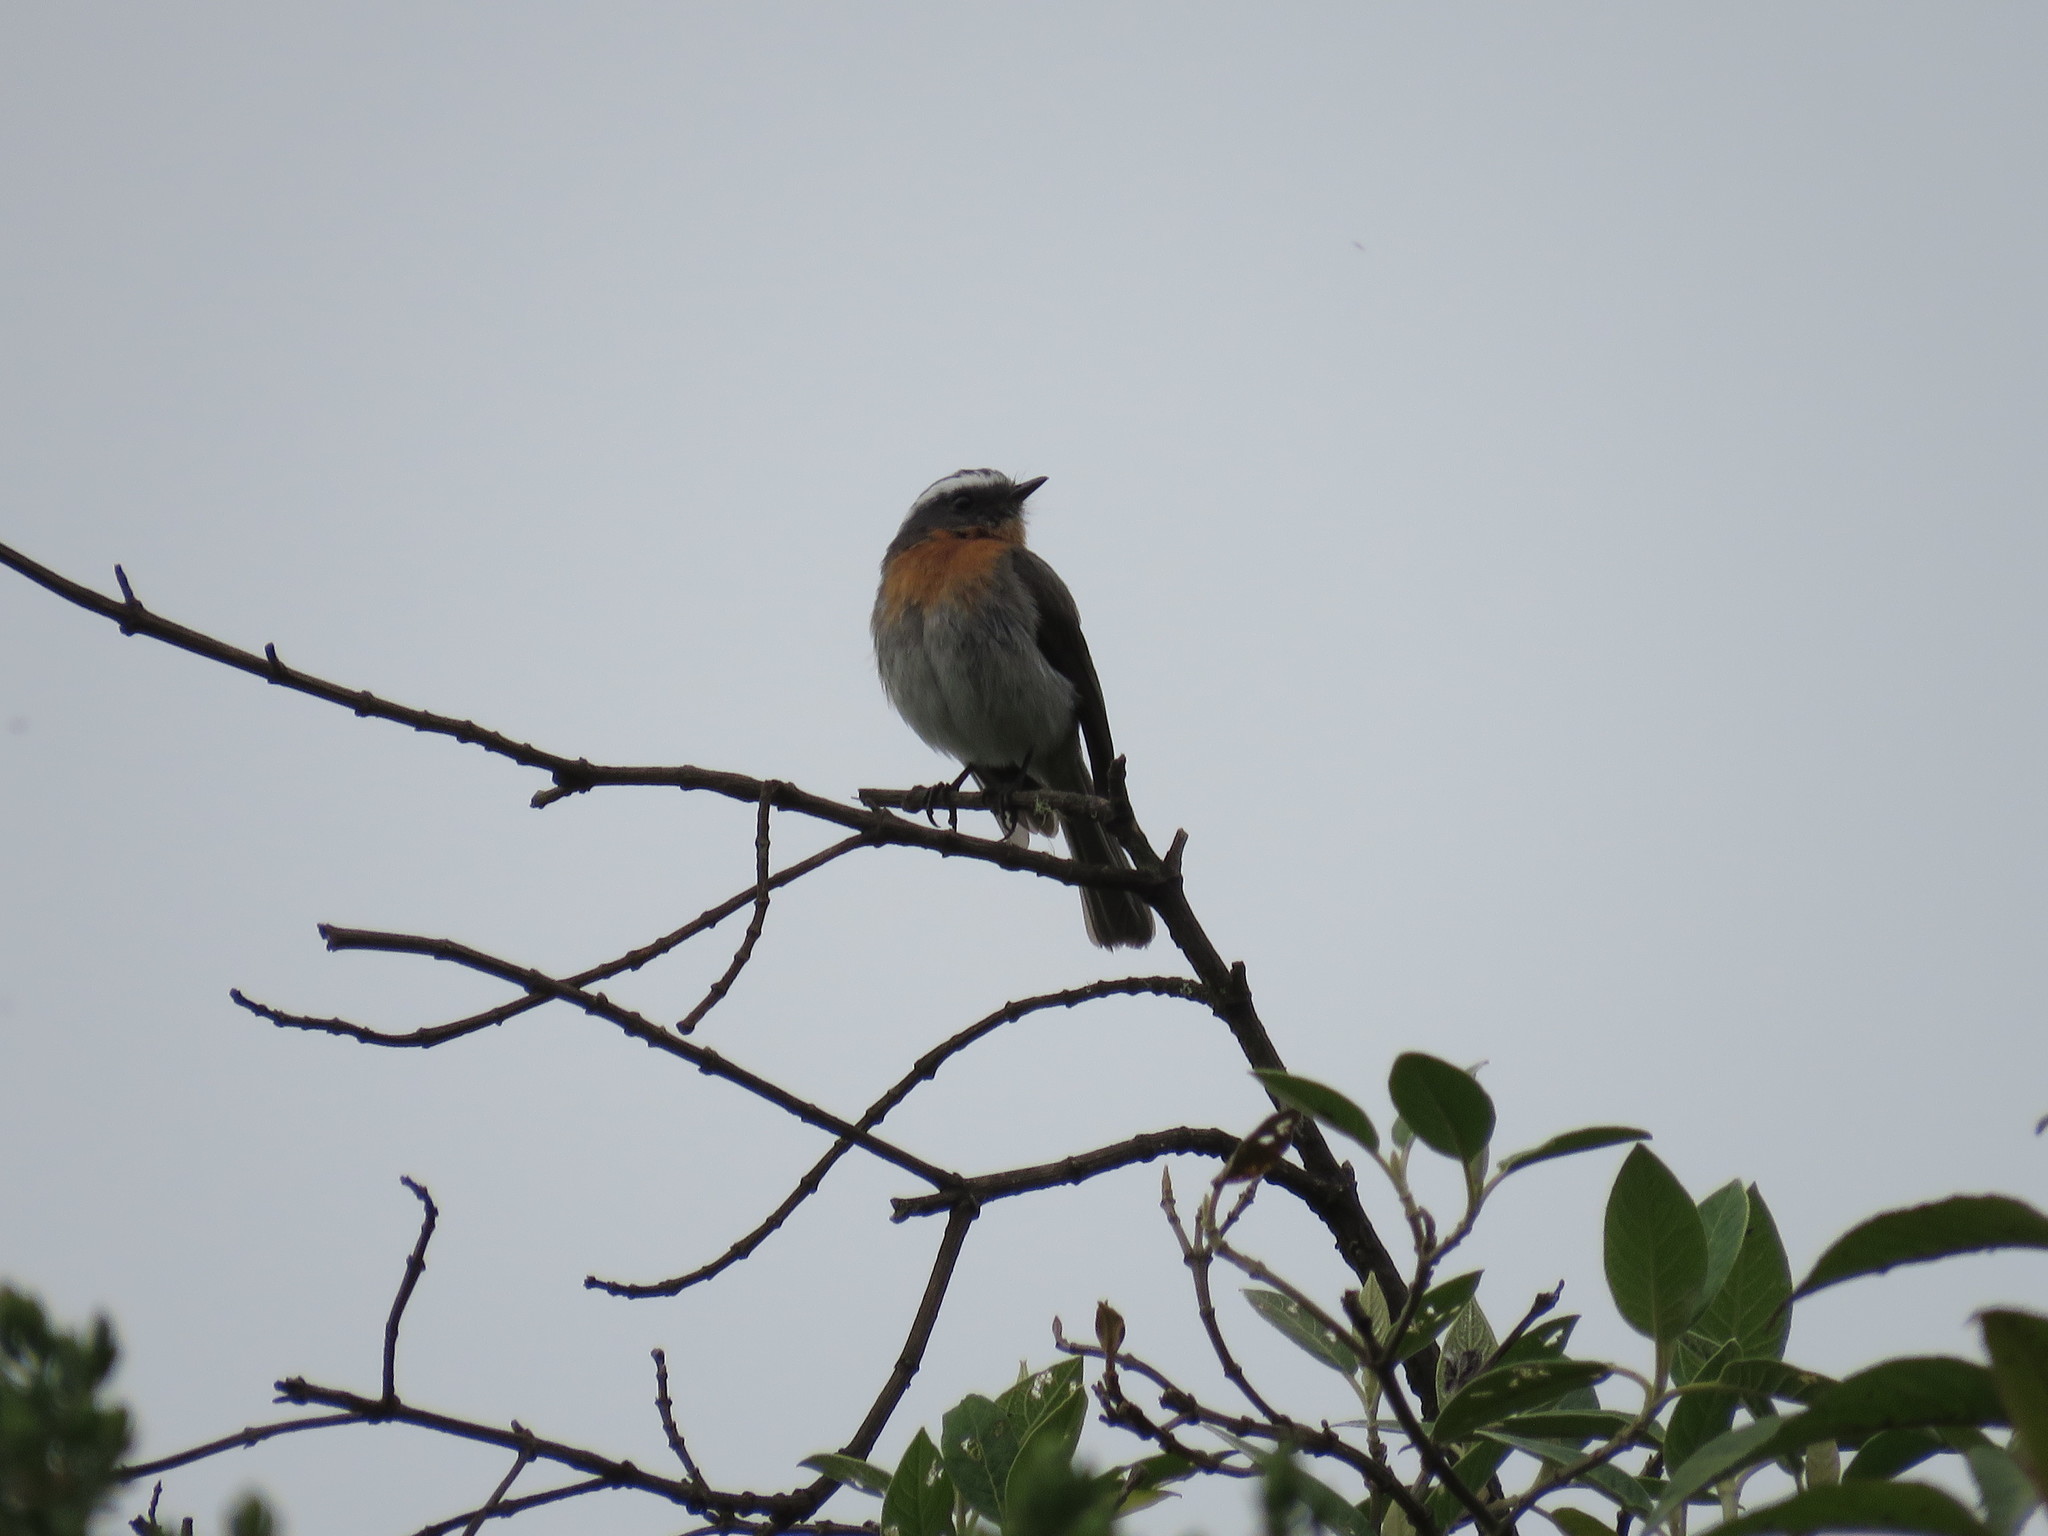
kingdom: Animalia
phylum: Chordata
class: Aves
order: Passeriformes
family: Tyrannidae
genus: Ochthoeca
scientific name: Ochthoeca rufipectoralis
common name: Rufous-breasted chat-tyrant
